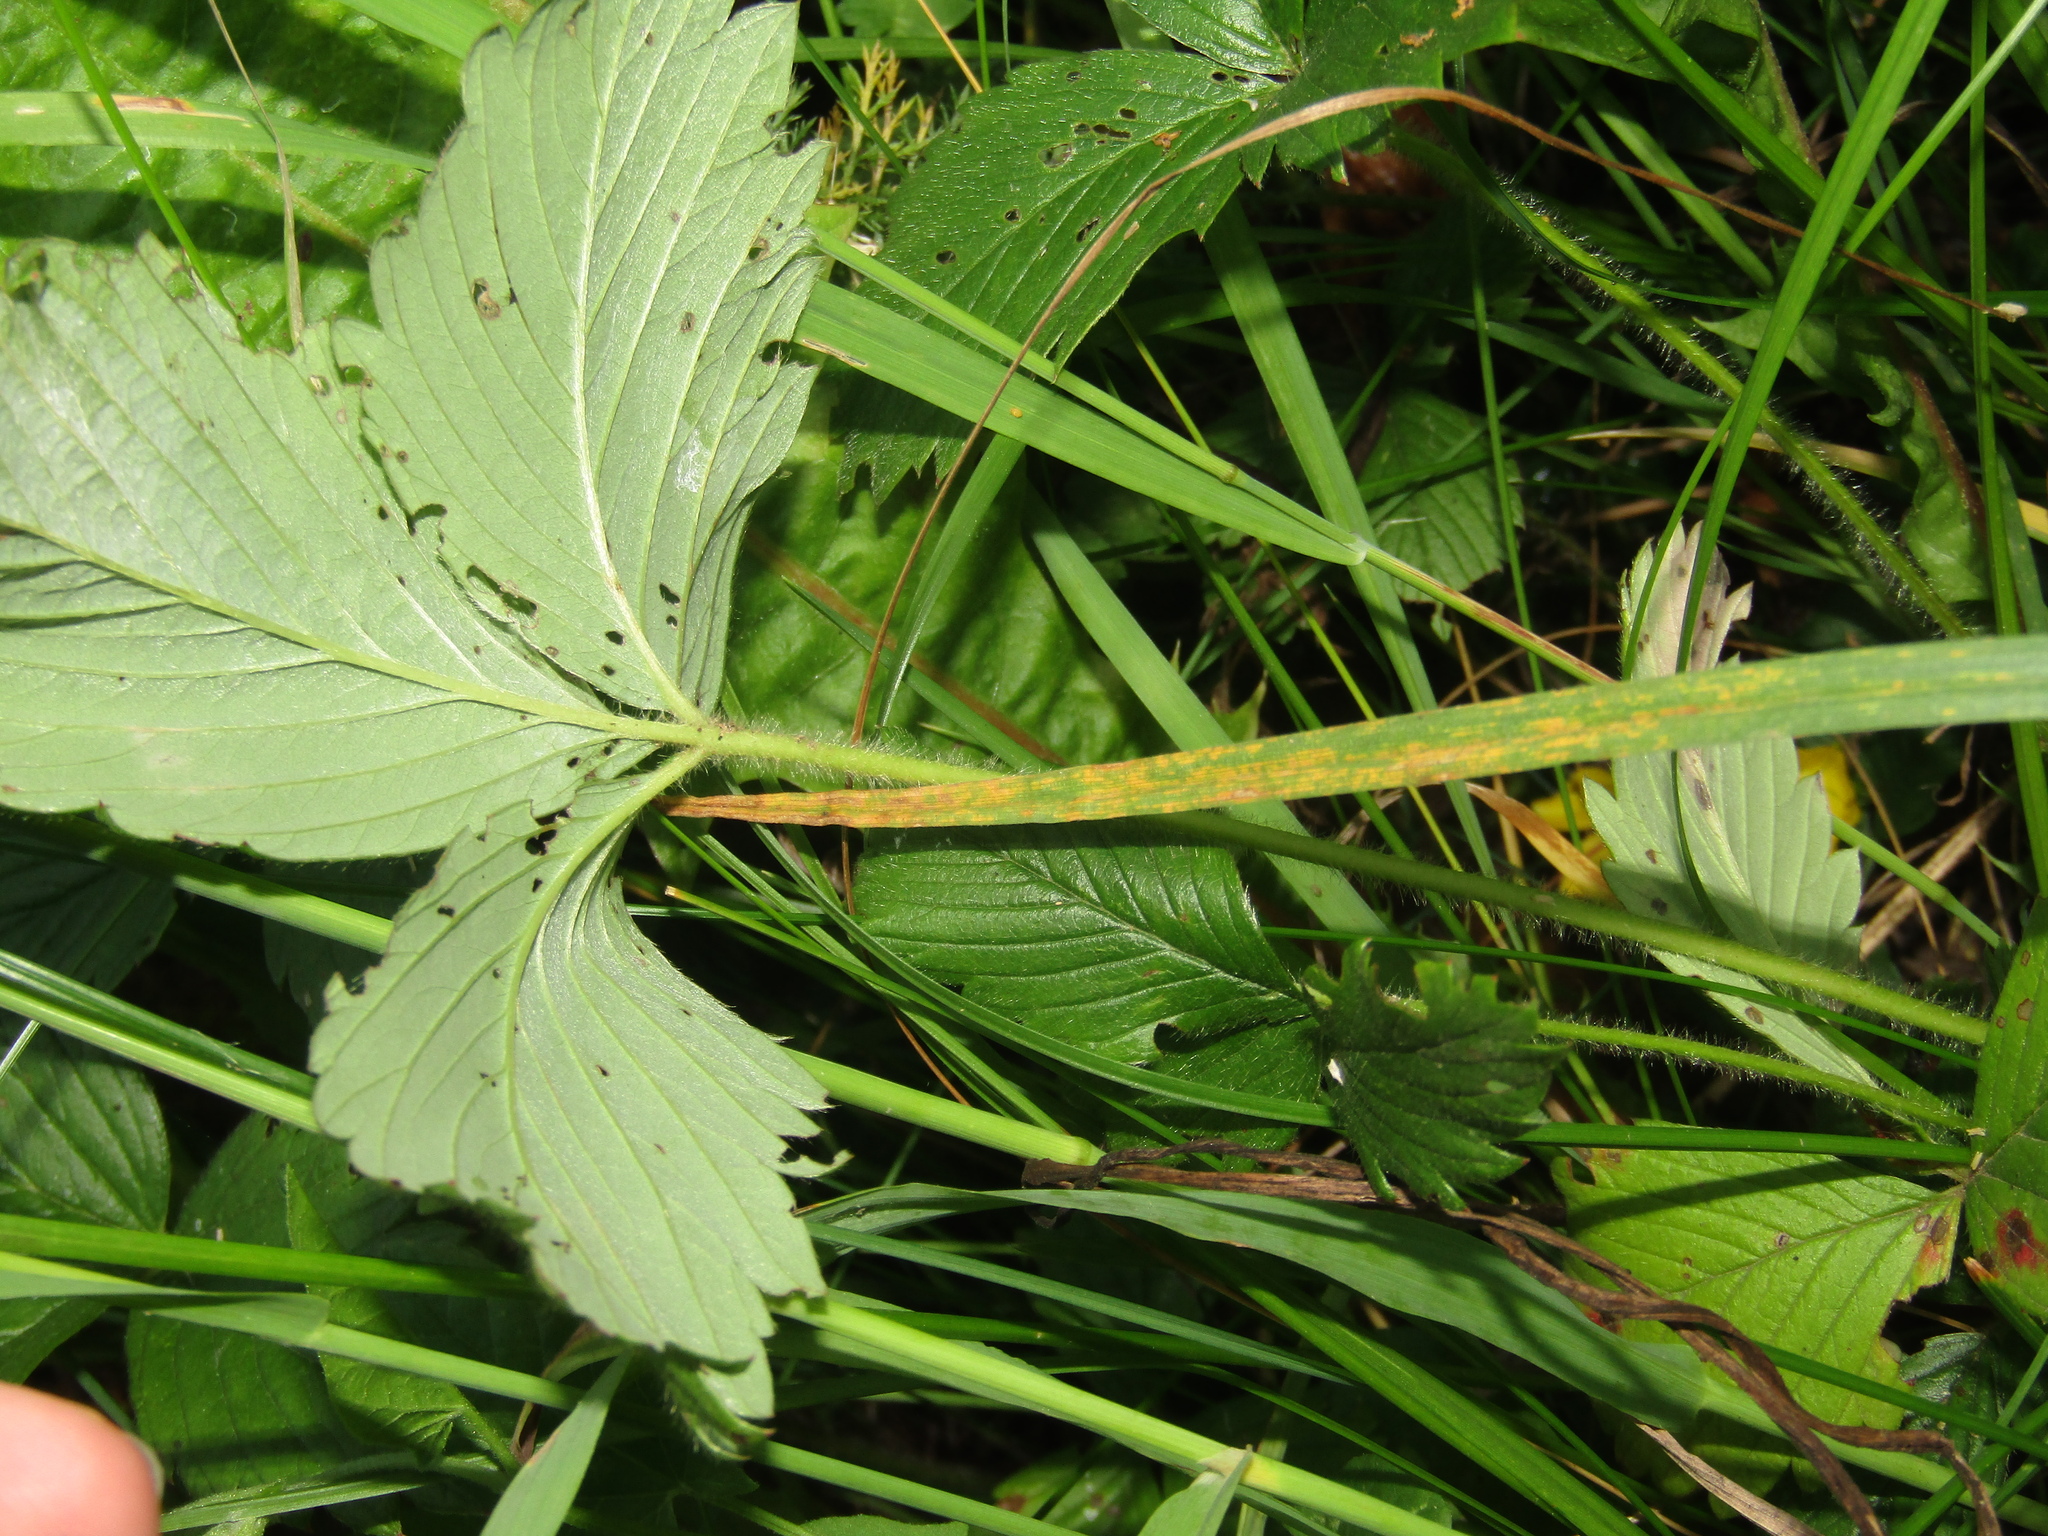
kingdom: Plantae
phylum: Tracheophyta
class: Magnoliopsida
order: Rosales
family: Rosaceae
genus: Fragaria
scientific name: Fragaria viridis
